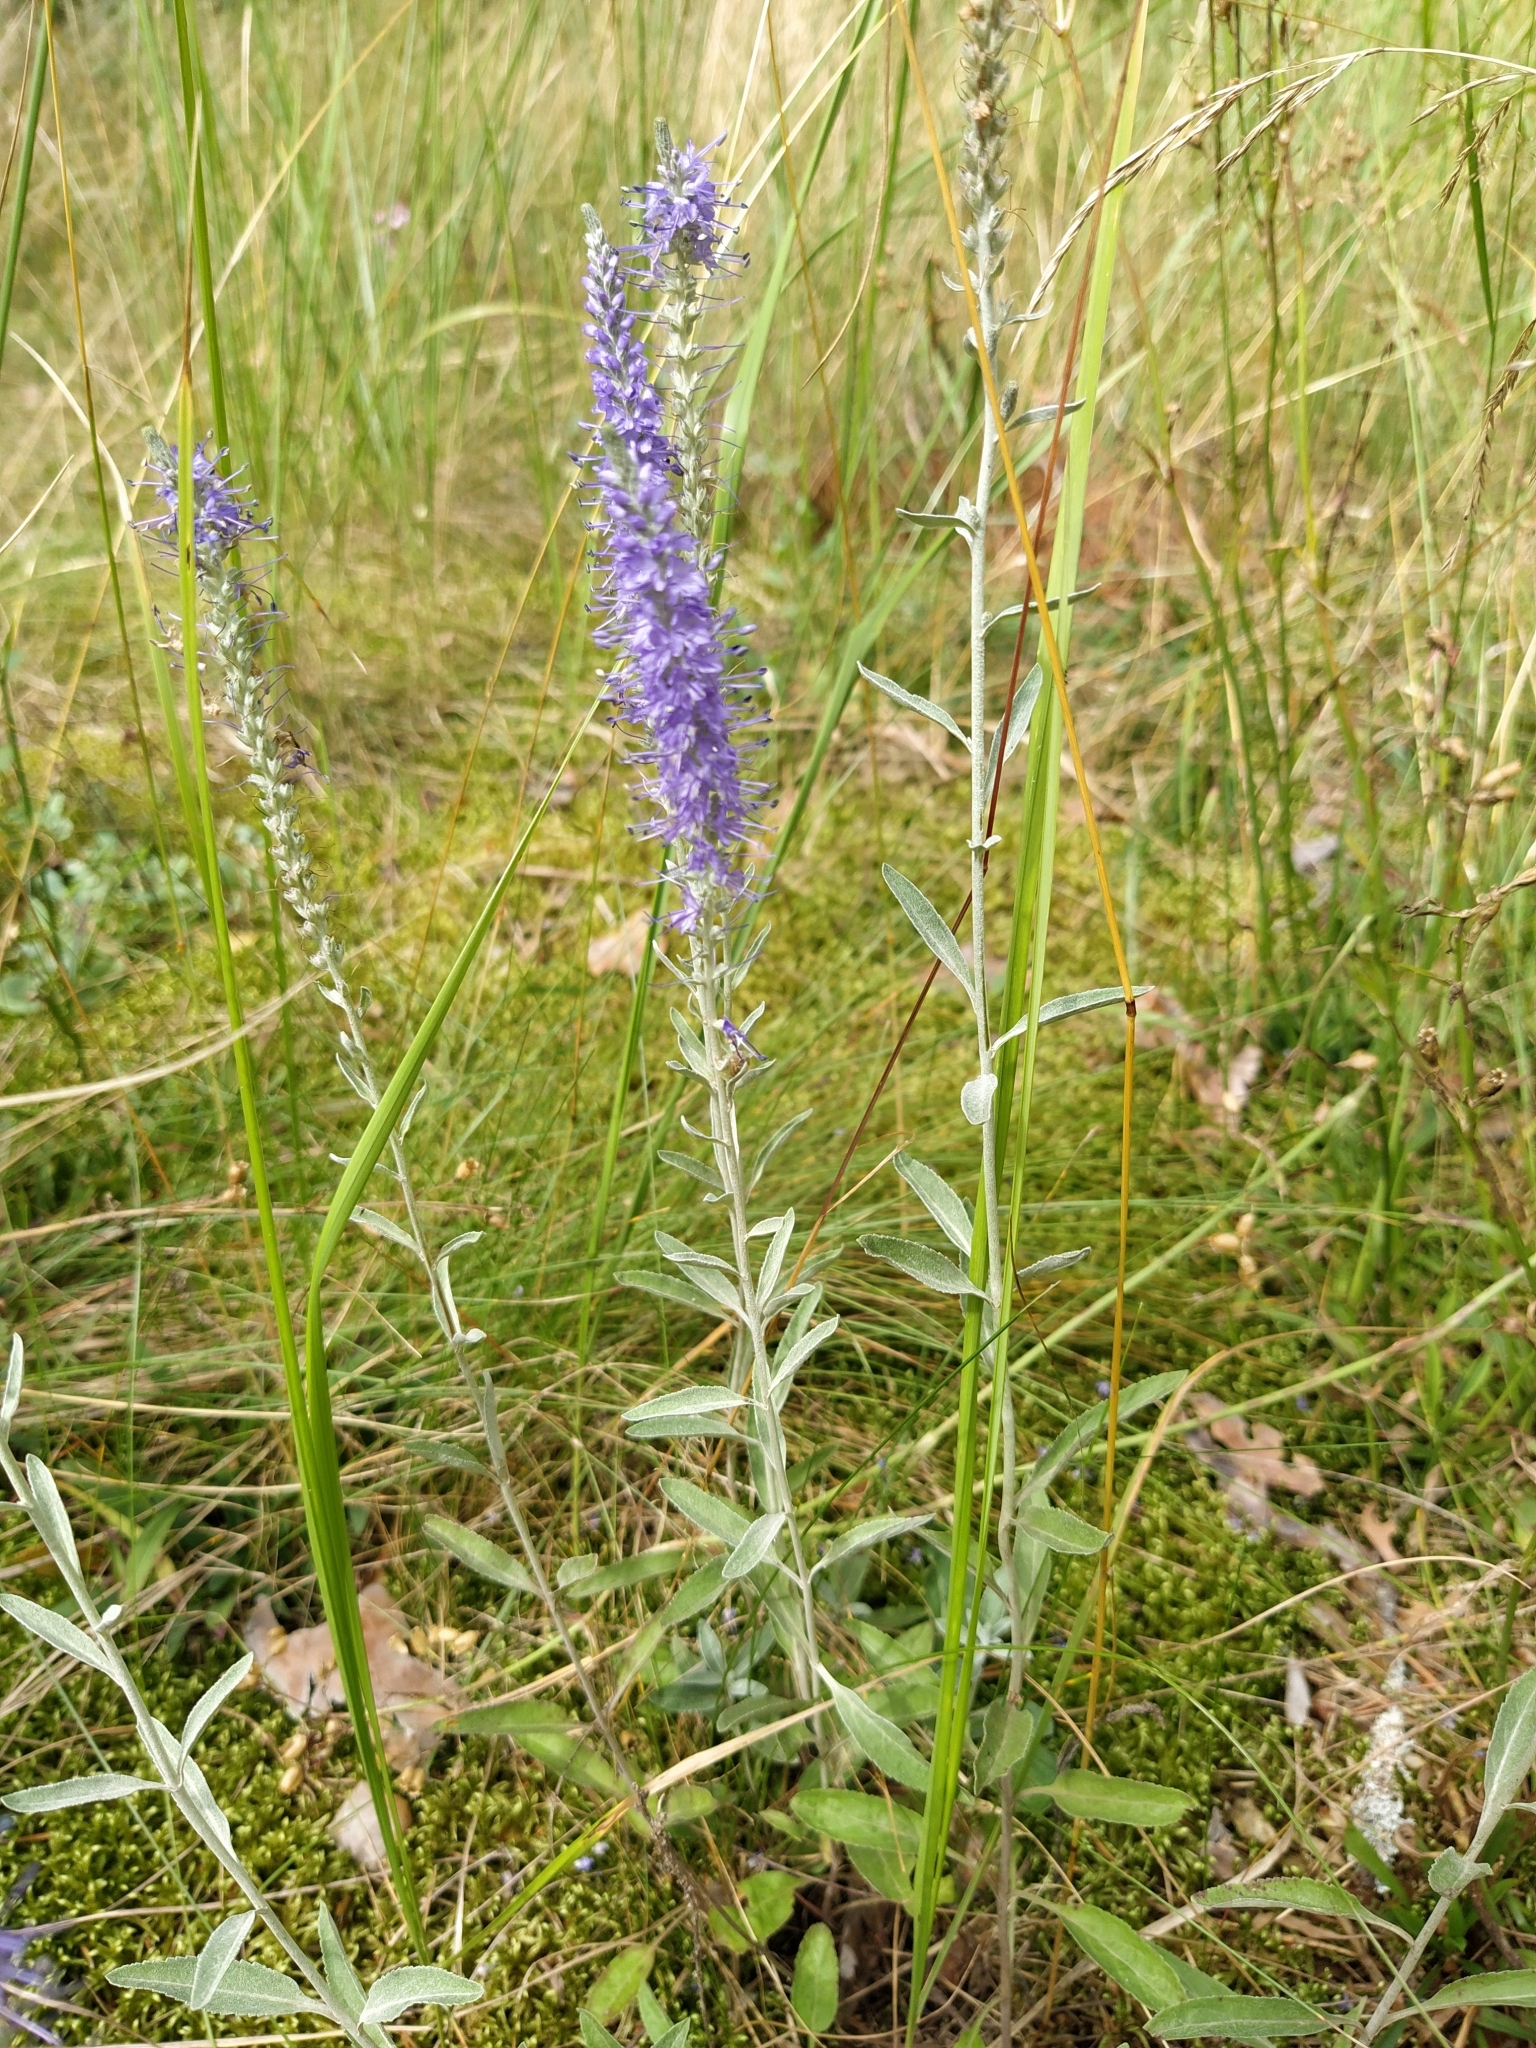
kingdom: Plantae
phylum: Tracheophyta
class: Magnoliopsida
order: Lamiales
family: Plantaginaceae
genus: Veronica
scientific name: Veronica incana
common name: Silver speedwell
